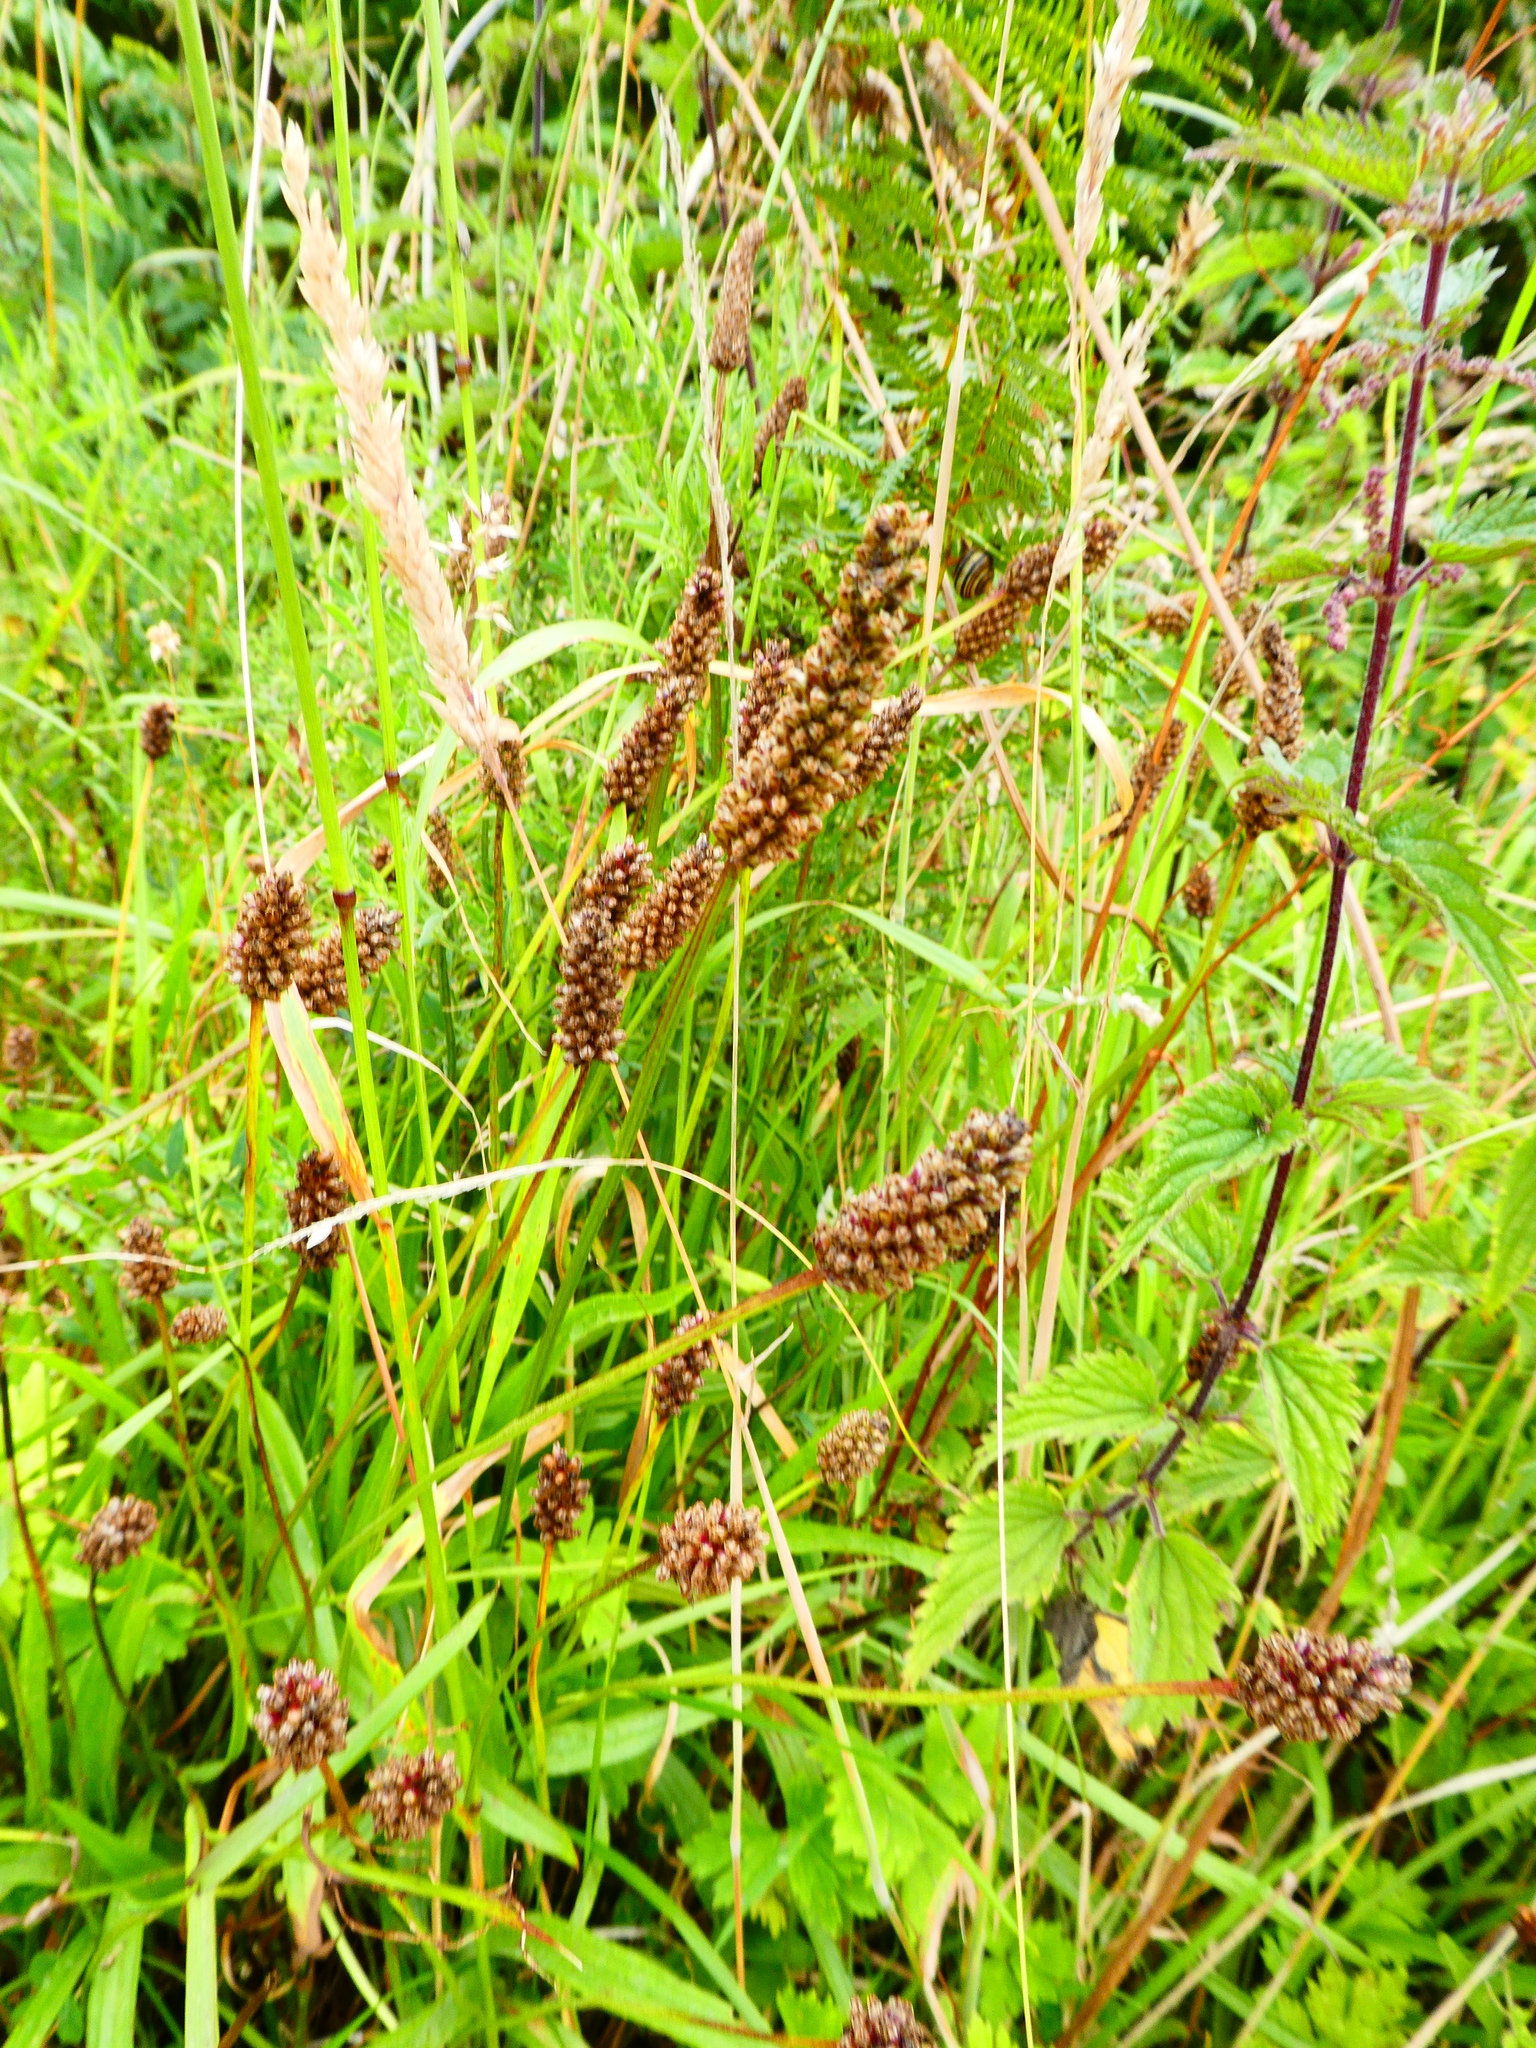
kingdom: Plantae
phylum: Tracheophyta
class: Magnoliopsida
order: Lamiales
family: Plantaginaceae
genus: Plantago
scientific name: Plantago lanceolata
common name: Ribwort plantain
